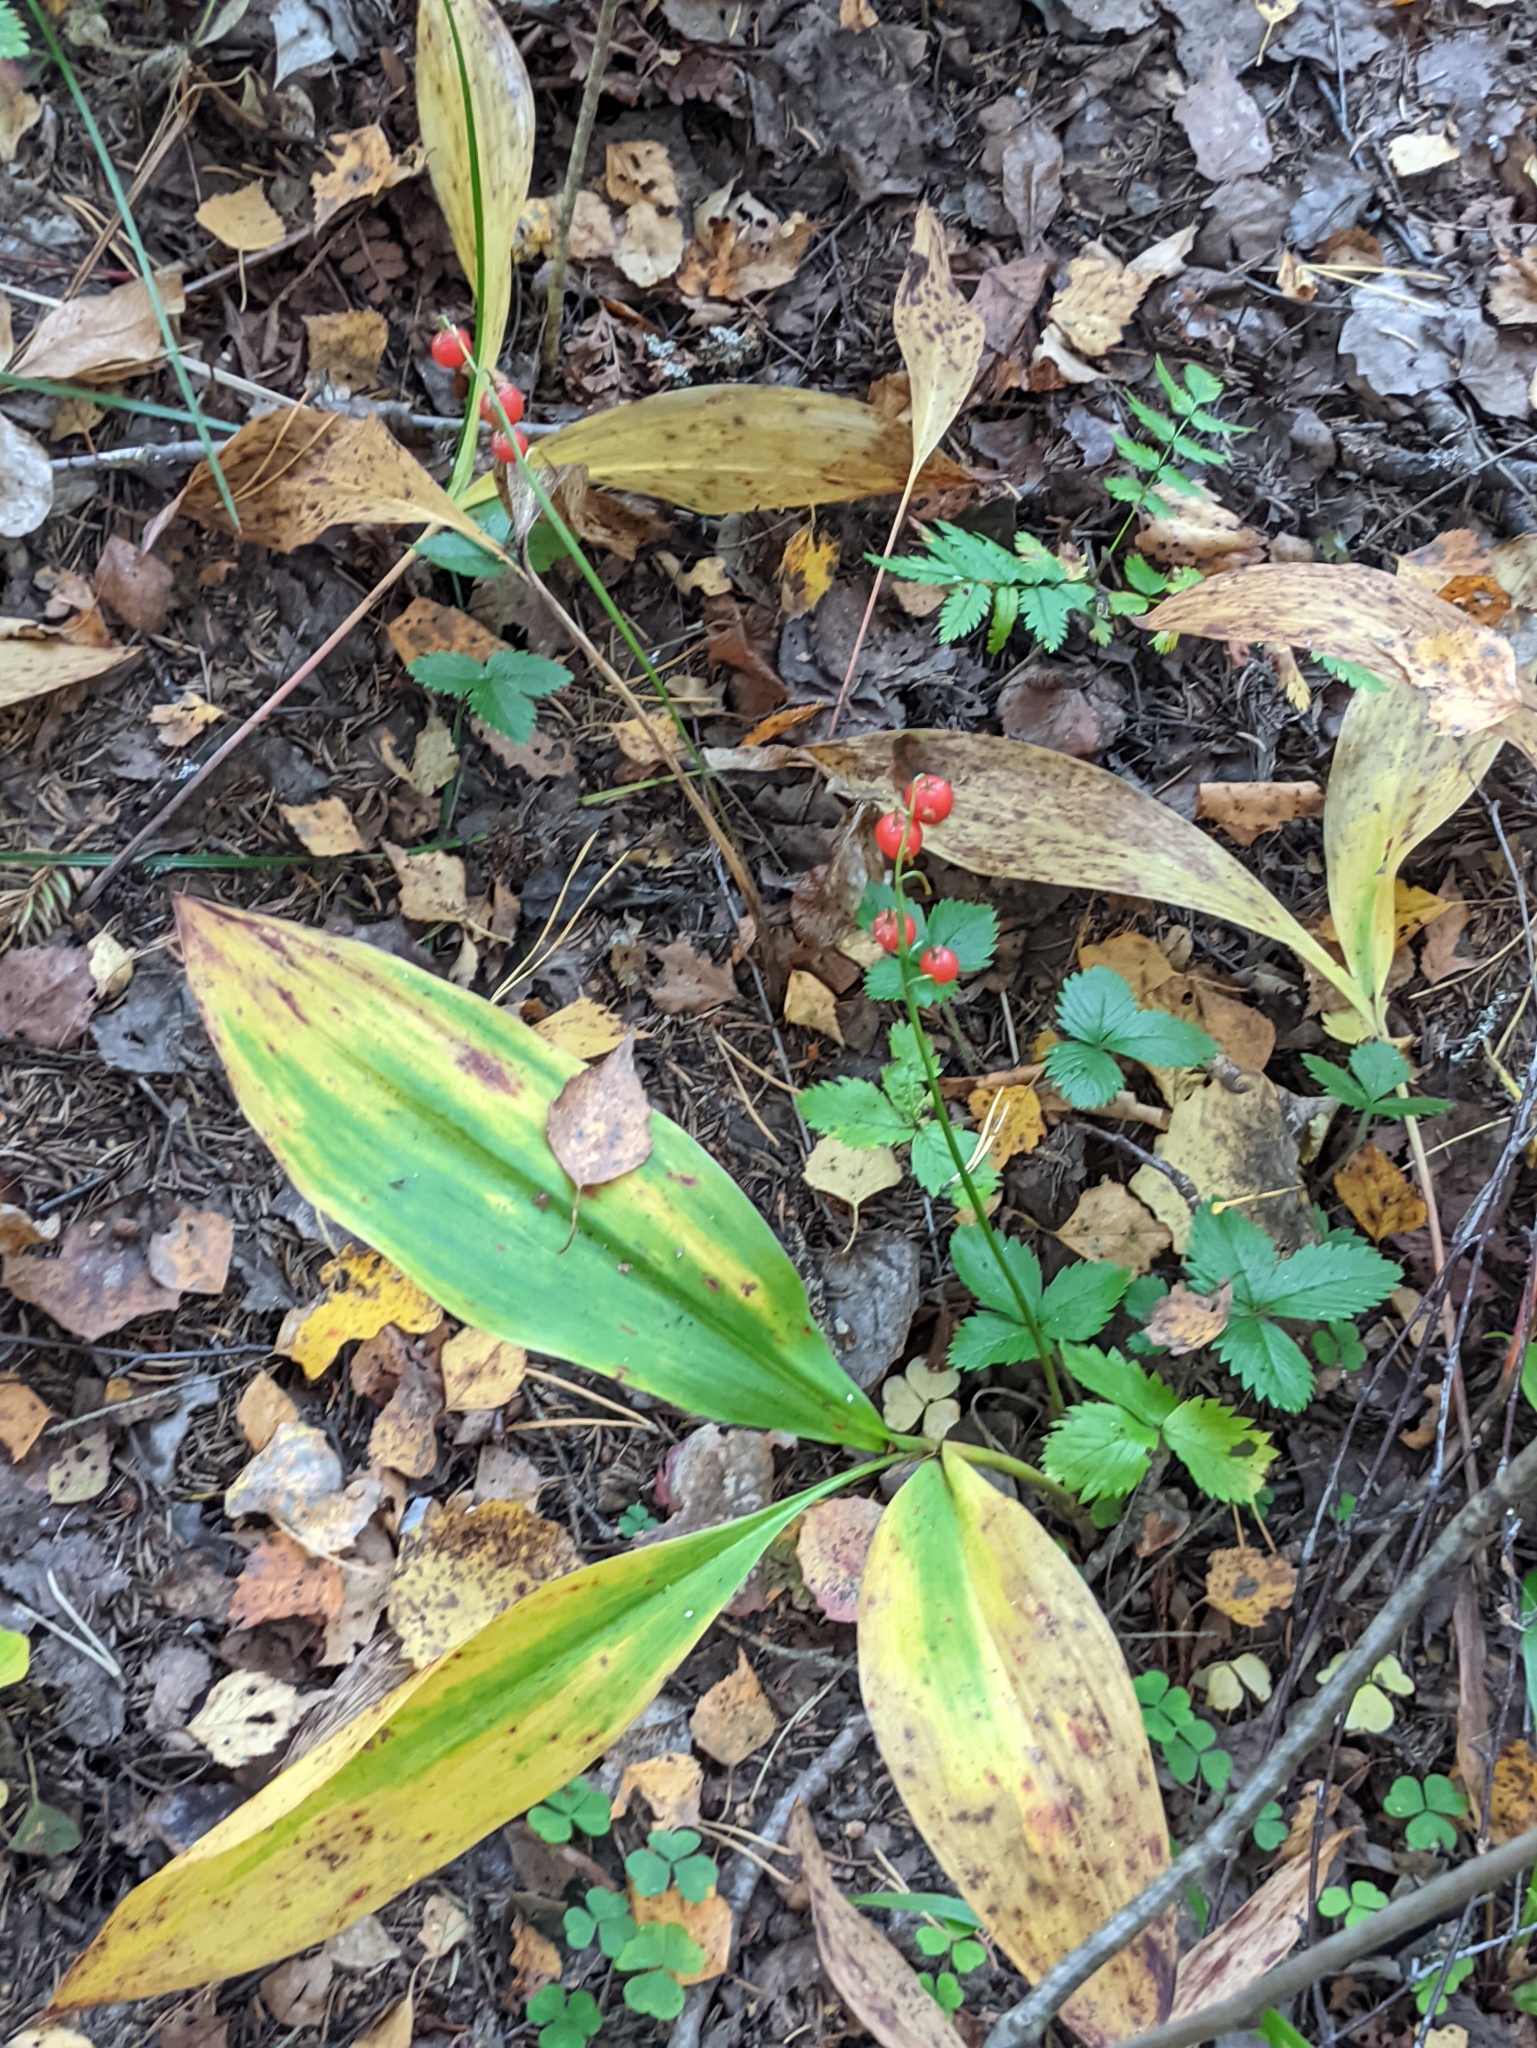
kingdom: Plantae
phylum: Tracheophyta
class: Liliopsida
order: Asparagales
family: Asparagaceae
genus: Convallaria
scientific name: Convallaria majalis
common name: Lily-of-the-valley
